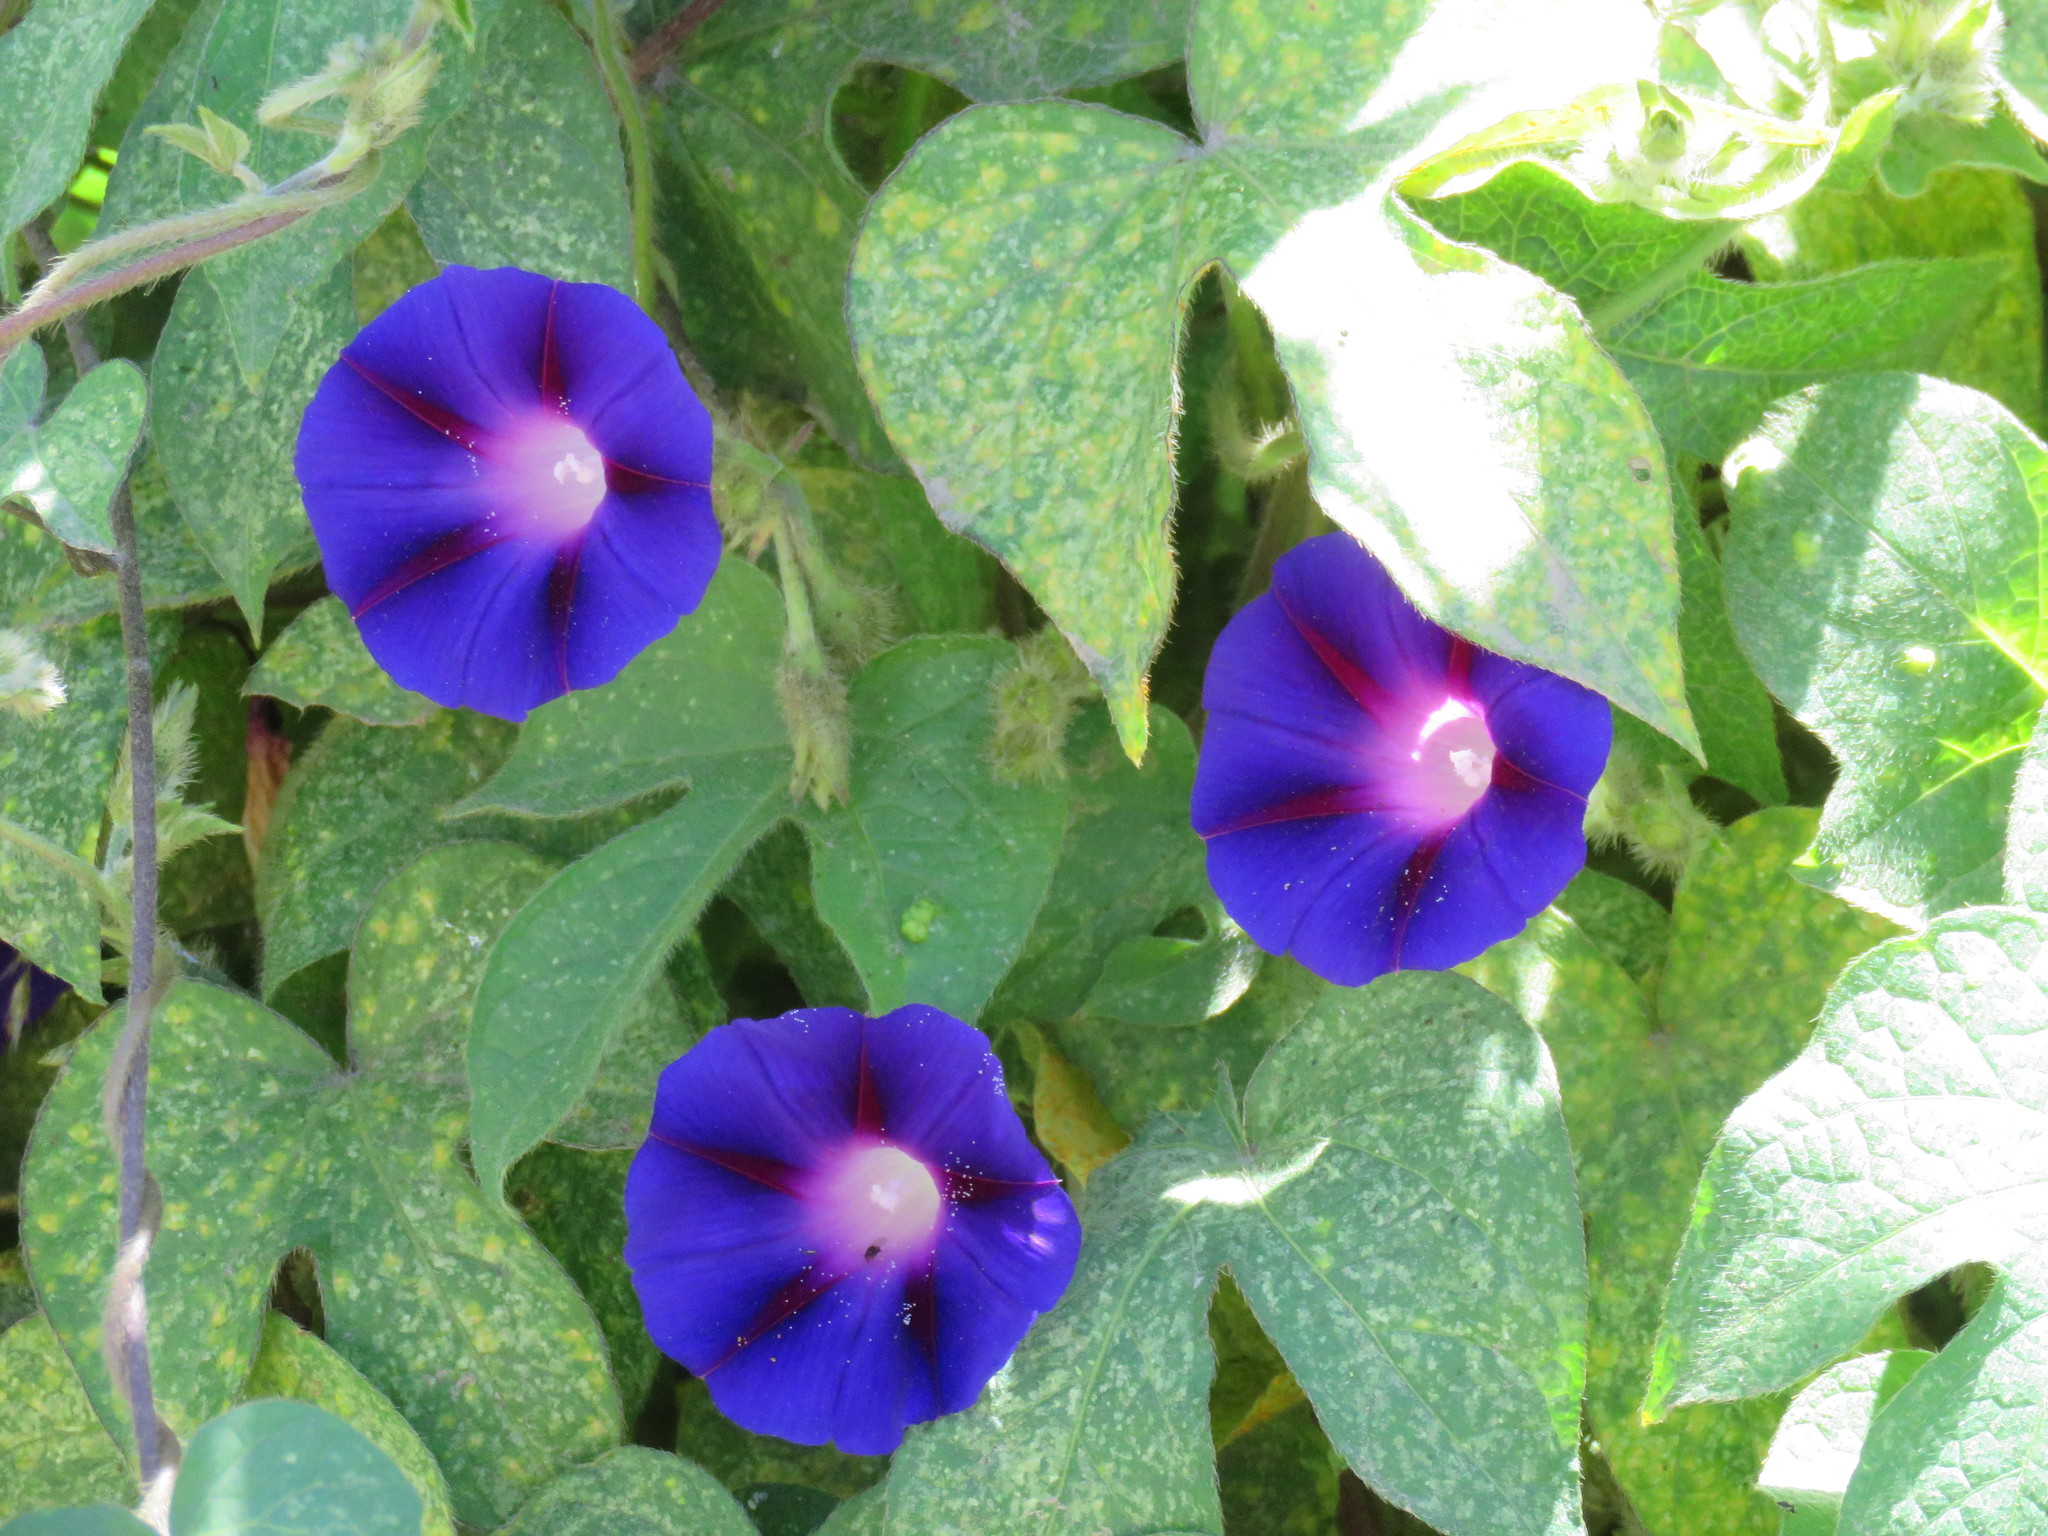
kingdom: Plantae
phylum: Tracheophyta
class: Magnoliopsida
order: Solanales
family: Convolvulaceae
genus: Ipomoea
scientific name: Ipomoea purpurea
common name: Common morning-glory
